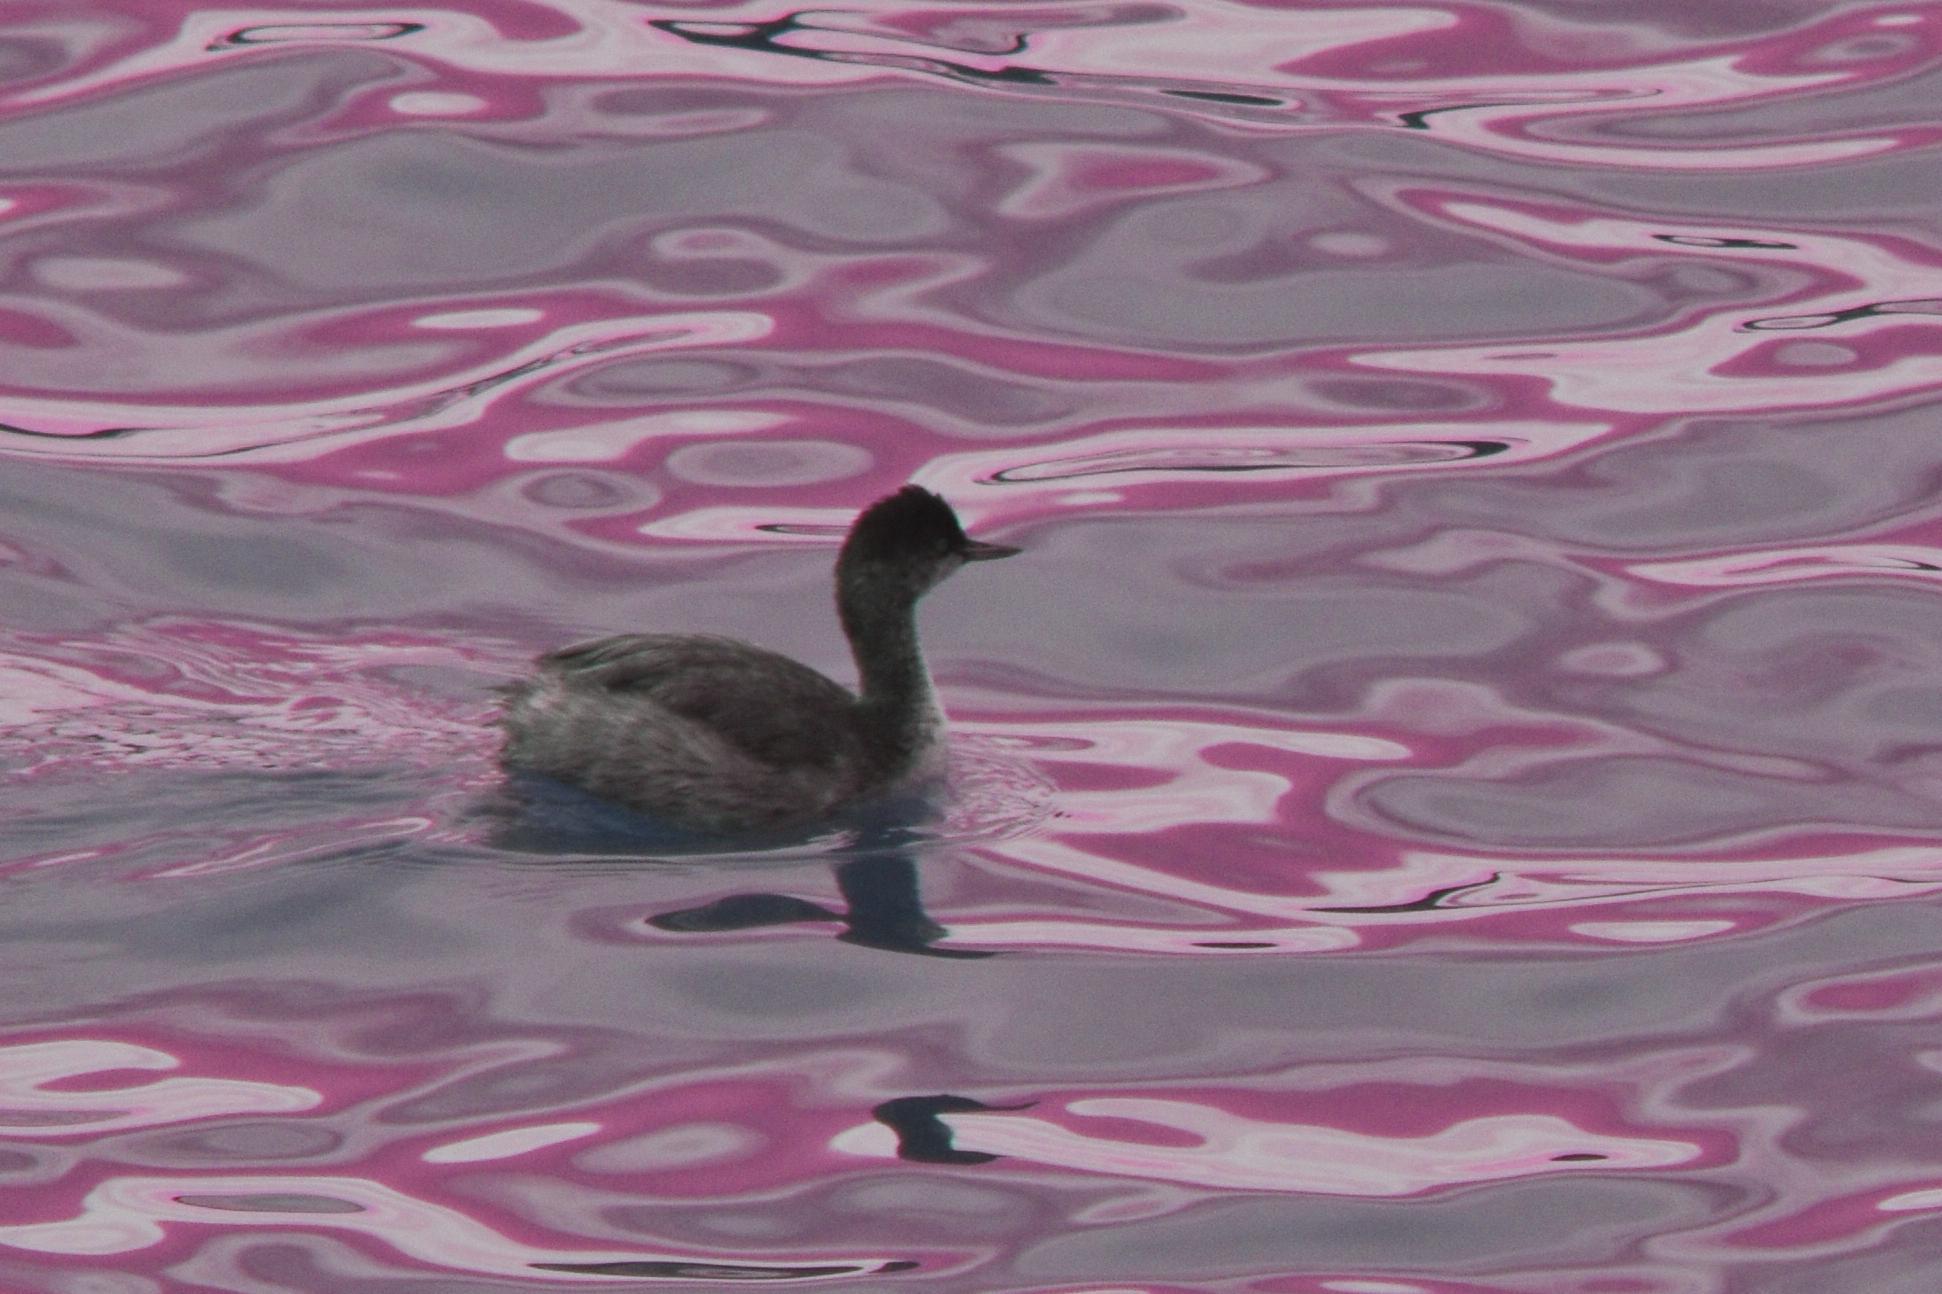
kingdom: Animalia
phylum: Chordata
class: Aves
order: Podicipediformes
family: Podicipedidae
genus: Podiceps
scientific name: Podiceps nigricollis
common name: Black-necked grebe
